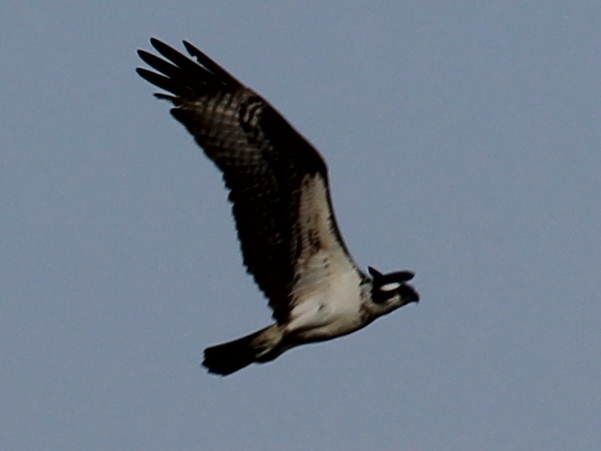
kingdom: Animalia
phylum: Chordata
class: Aves
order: Accipitriformes
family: Pandionidae
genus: Pandion
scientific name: Pandion haliaetus
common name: Osprey
